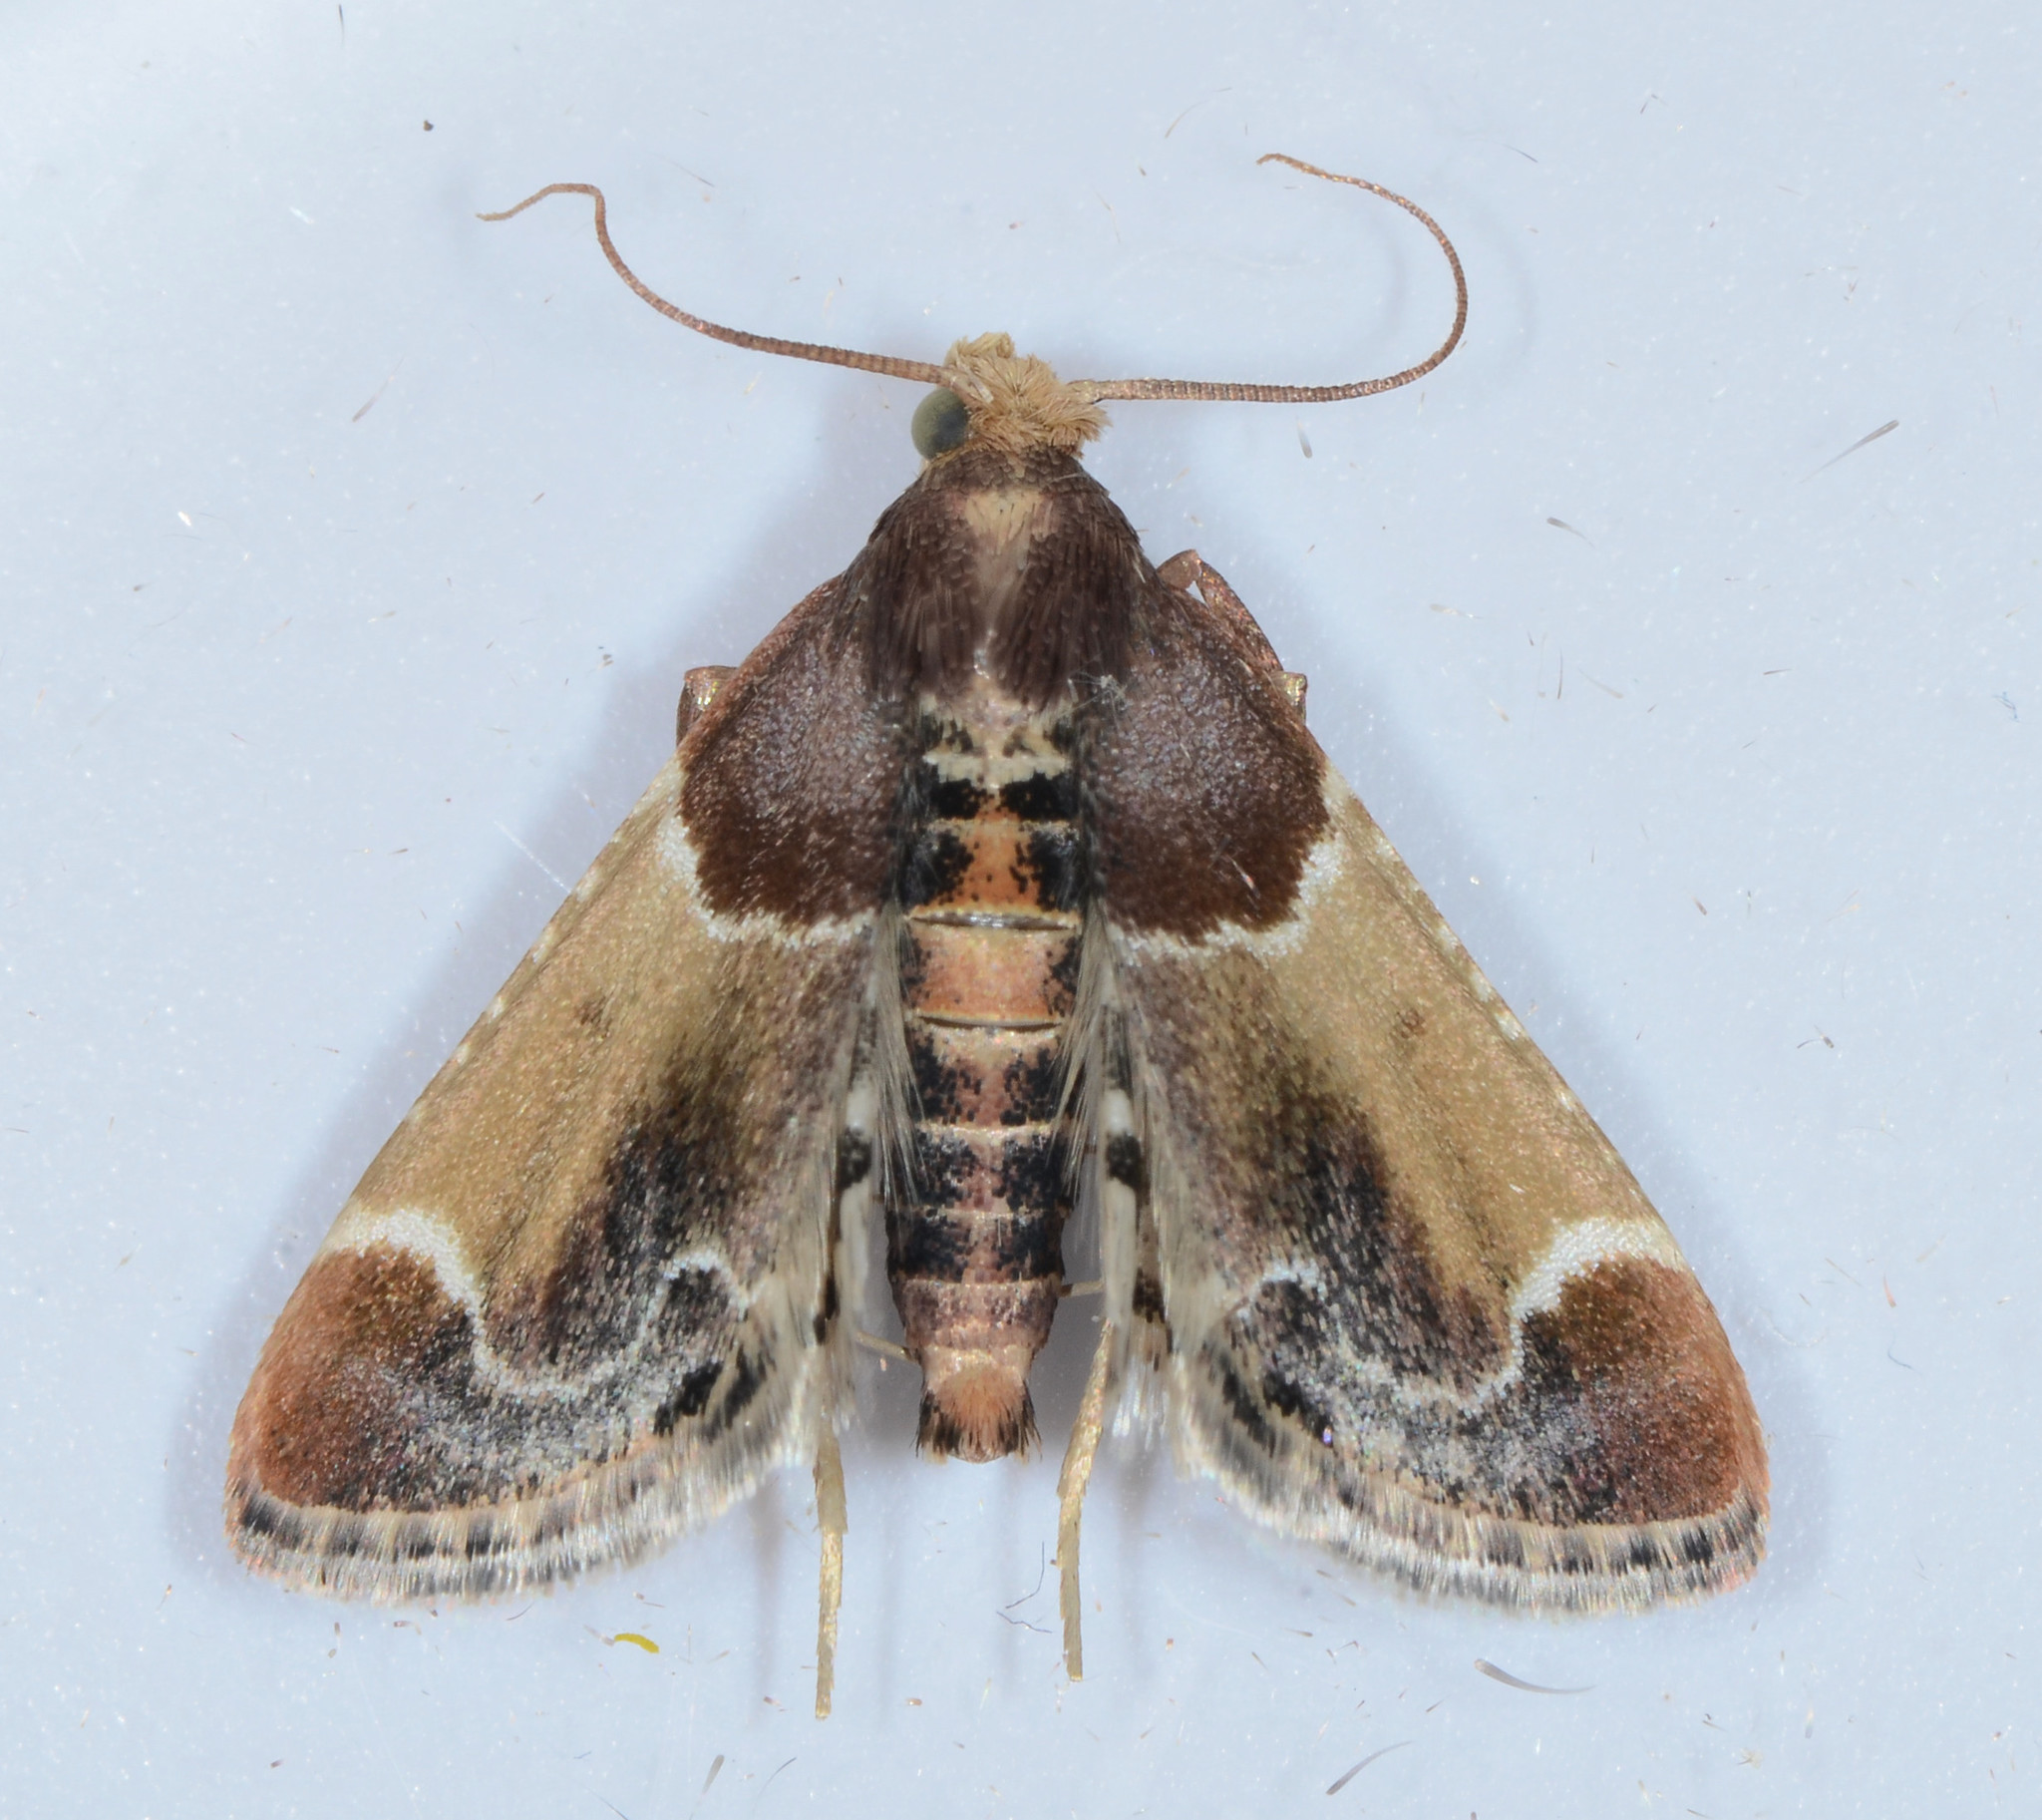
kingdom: Animalia
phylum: Arthropoda
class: Insecta
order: Lepidoptera
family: Pyralidae
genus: Pyralis
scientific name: Pyralis farinalis
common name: Meal moth
